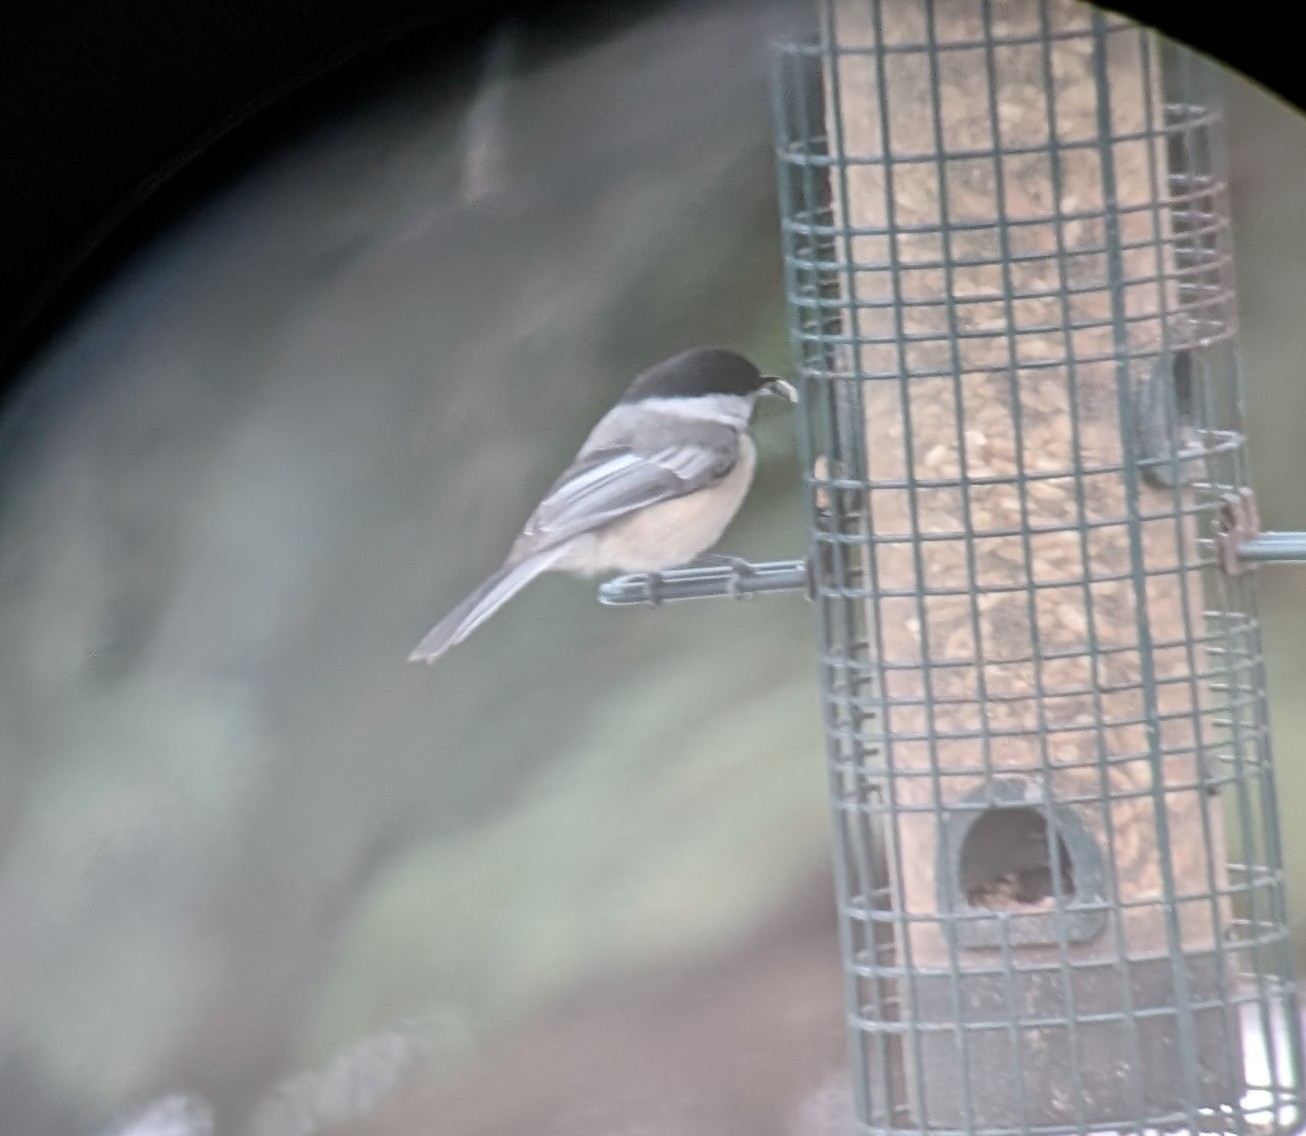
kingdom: Animalia
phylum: Chordata
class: Aves
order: Passeriformes
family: Paridae
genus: Poecile
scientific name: Poecile atricapillus
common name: Black-capped chickadee
